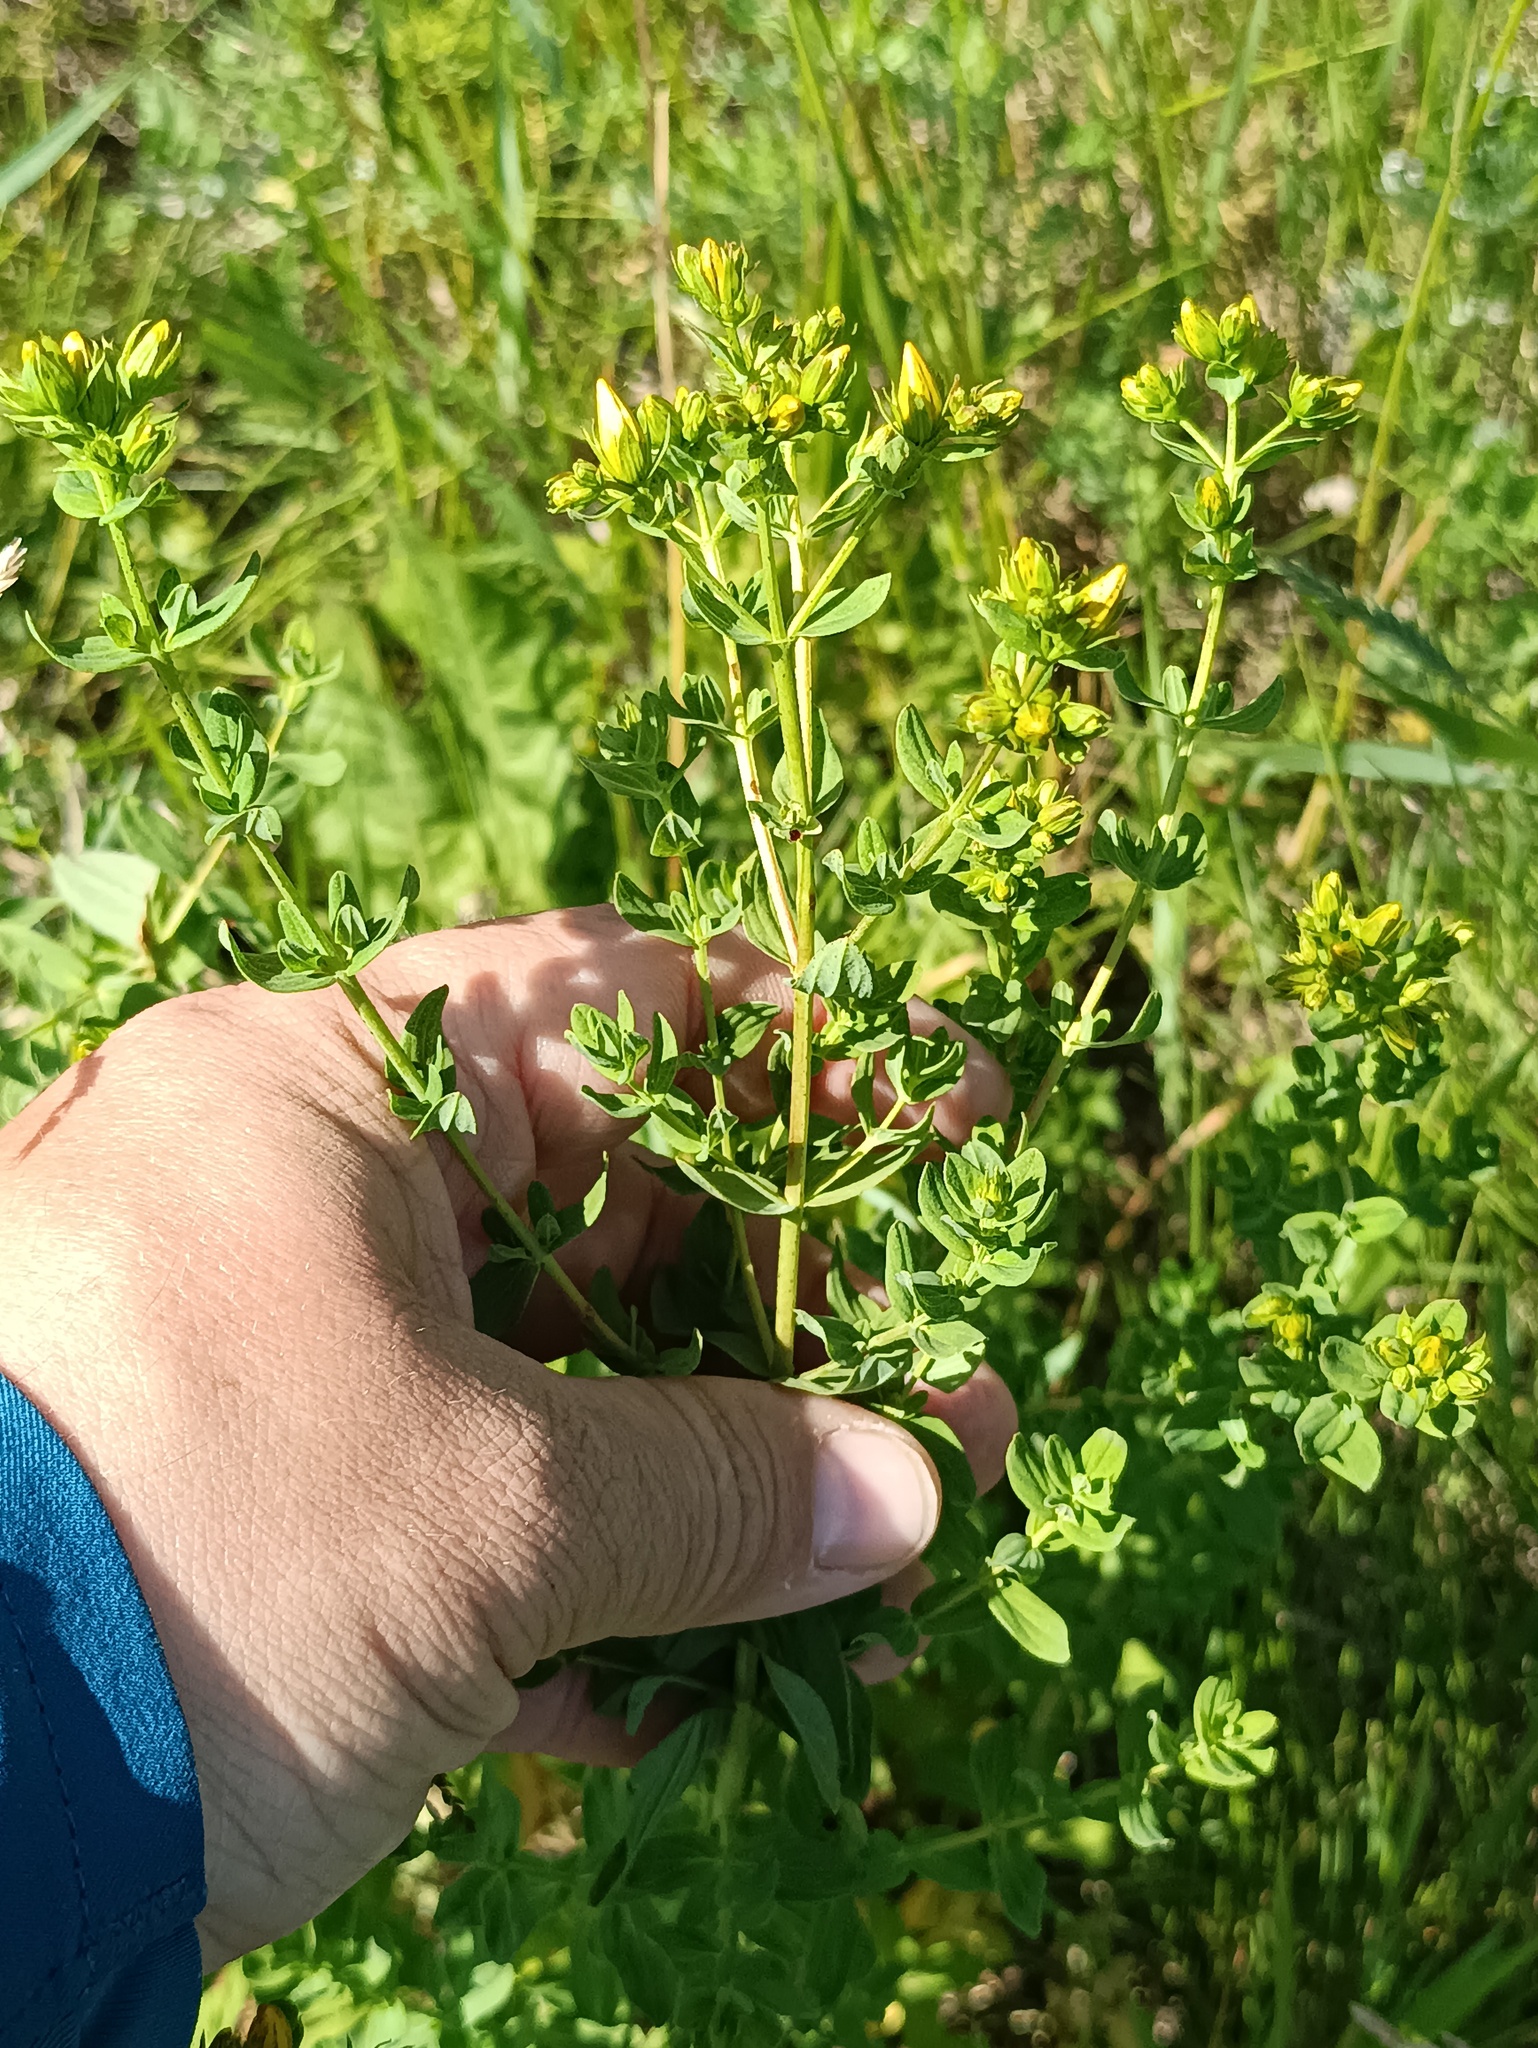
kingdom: Plantae
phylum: Tracheophyta
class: Magnoliopsida
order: Malpighiales
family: Hypericaceae
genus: Hypericum
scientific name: Hypericum perforatum
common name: Common st. johnswort
